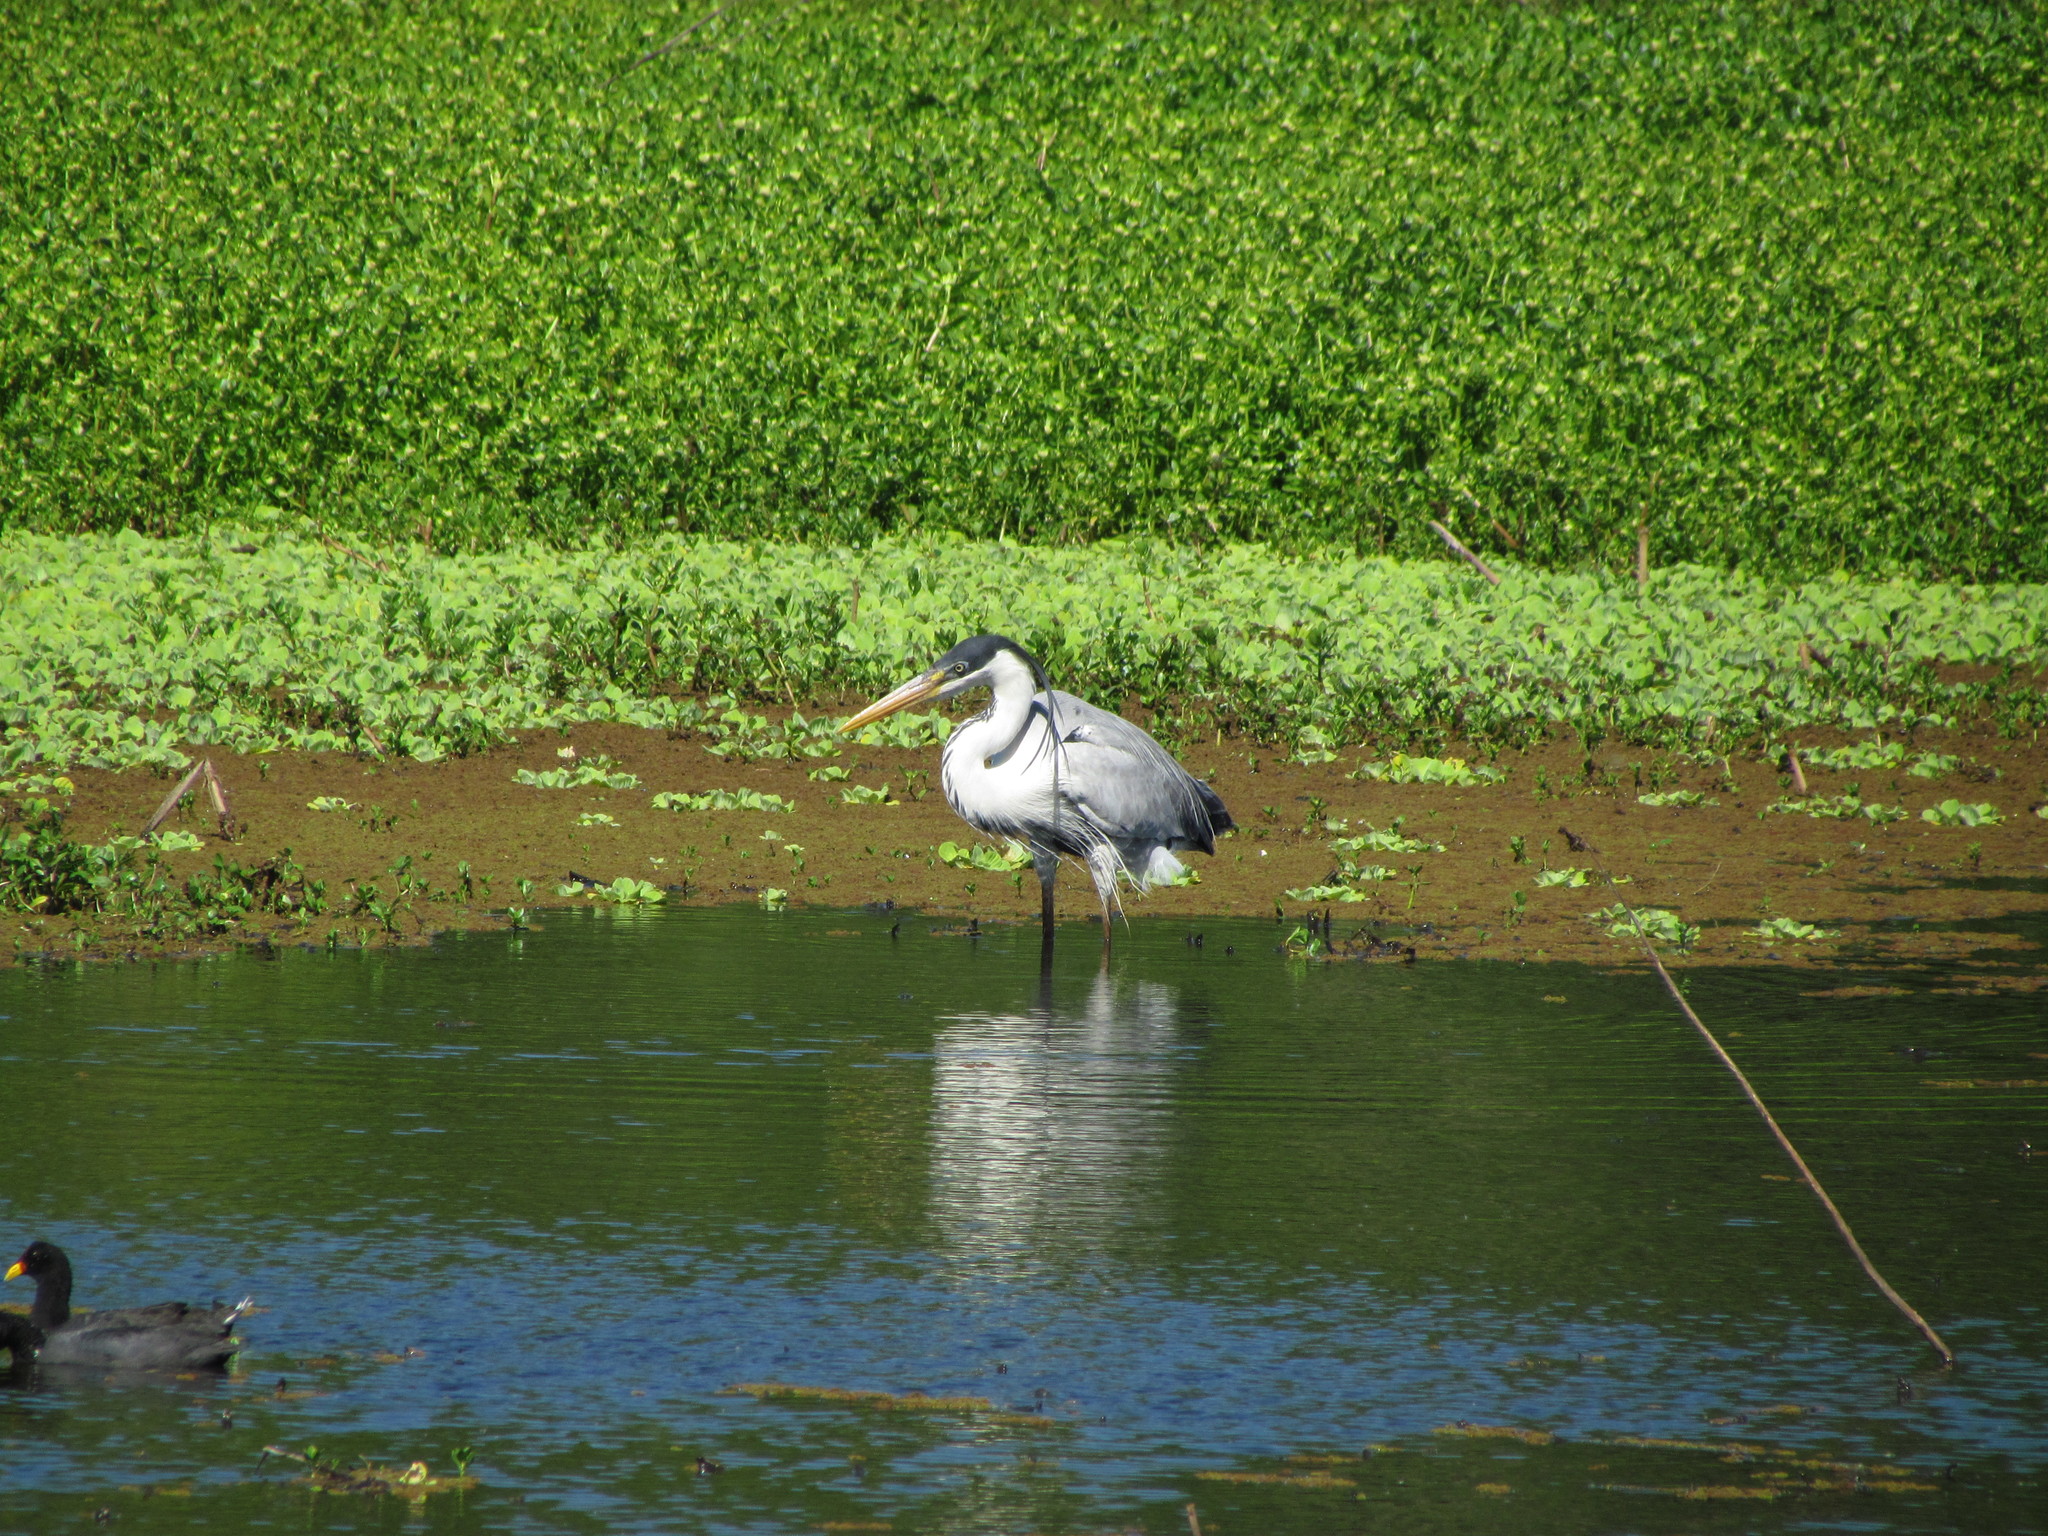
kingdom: Animalia
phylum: Chordata
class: Aves
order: Pelecaniformes
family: Ardeidae
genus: Ardea
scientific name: Ardea cocoi
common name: Cocoi heron
